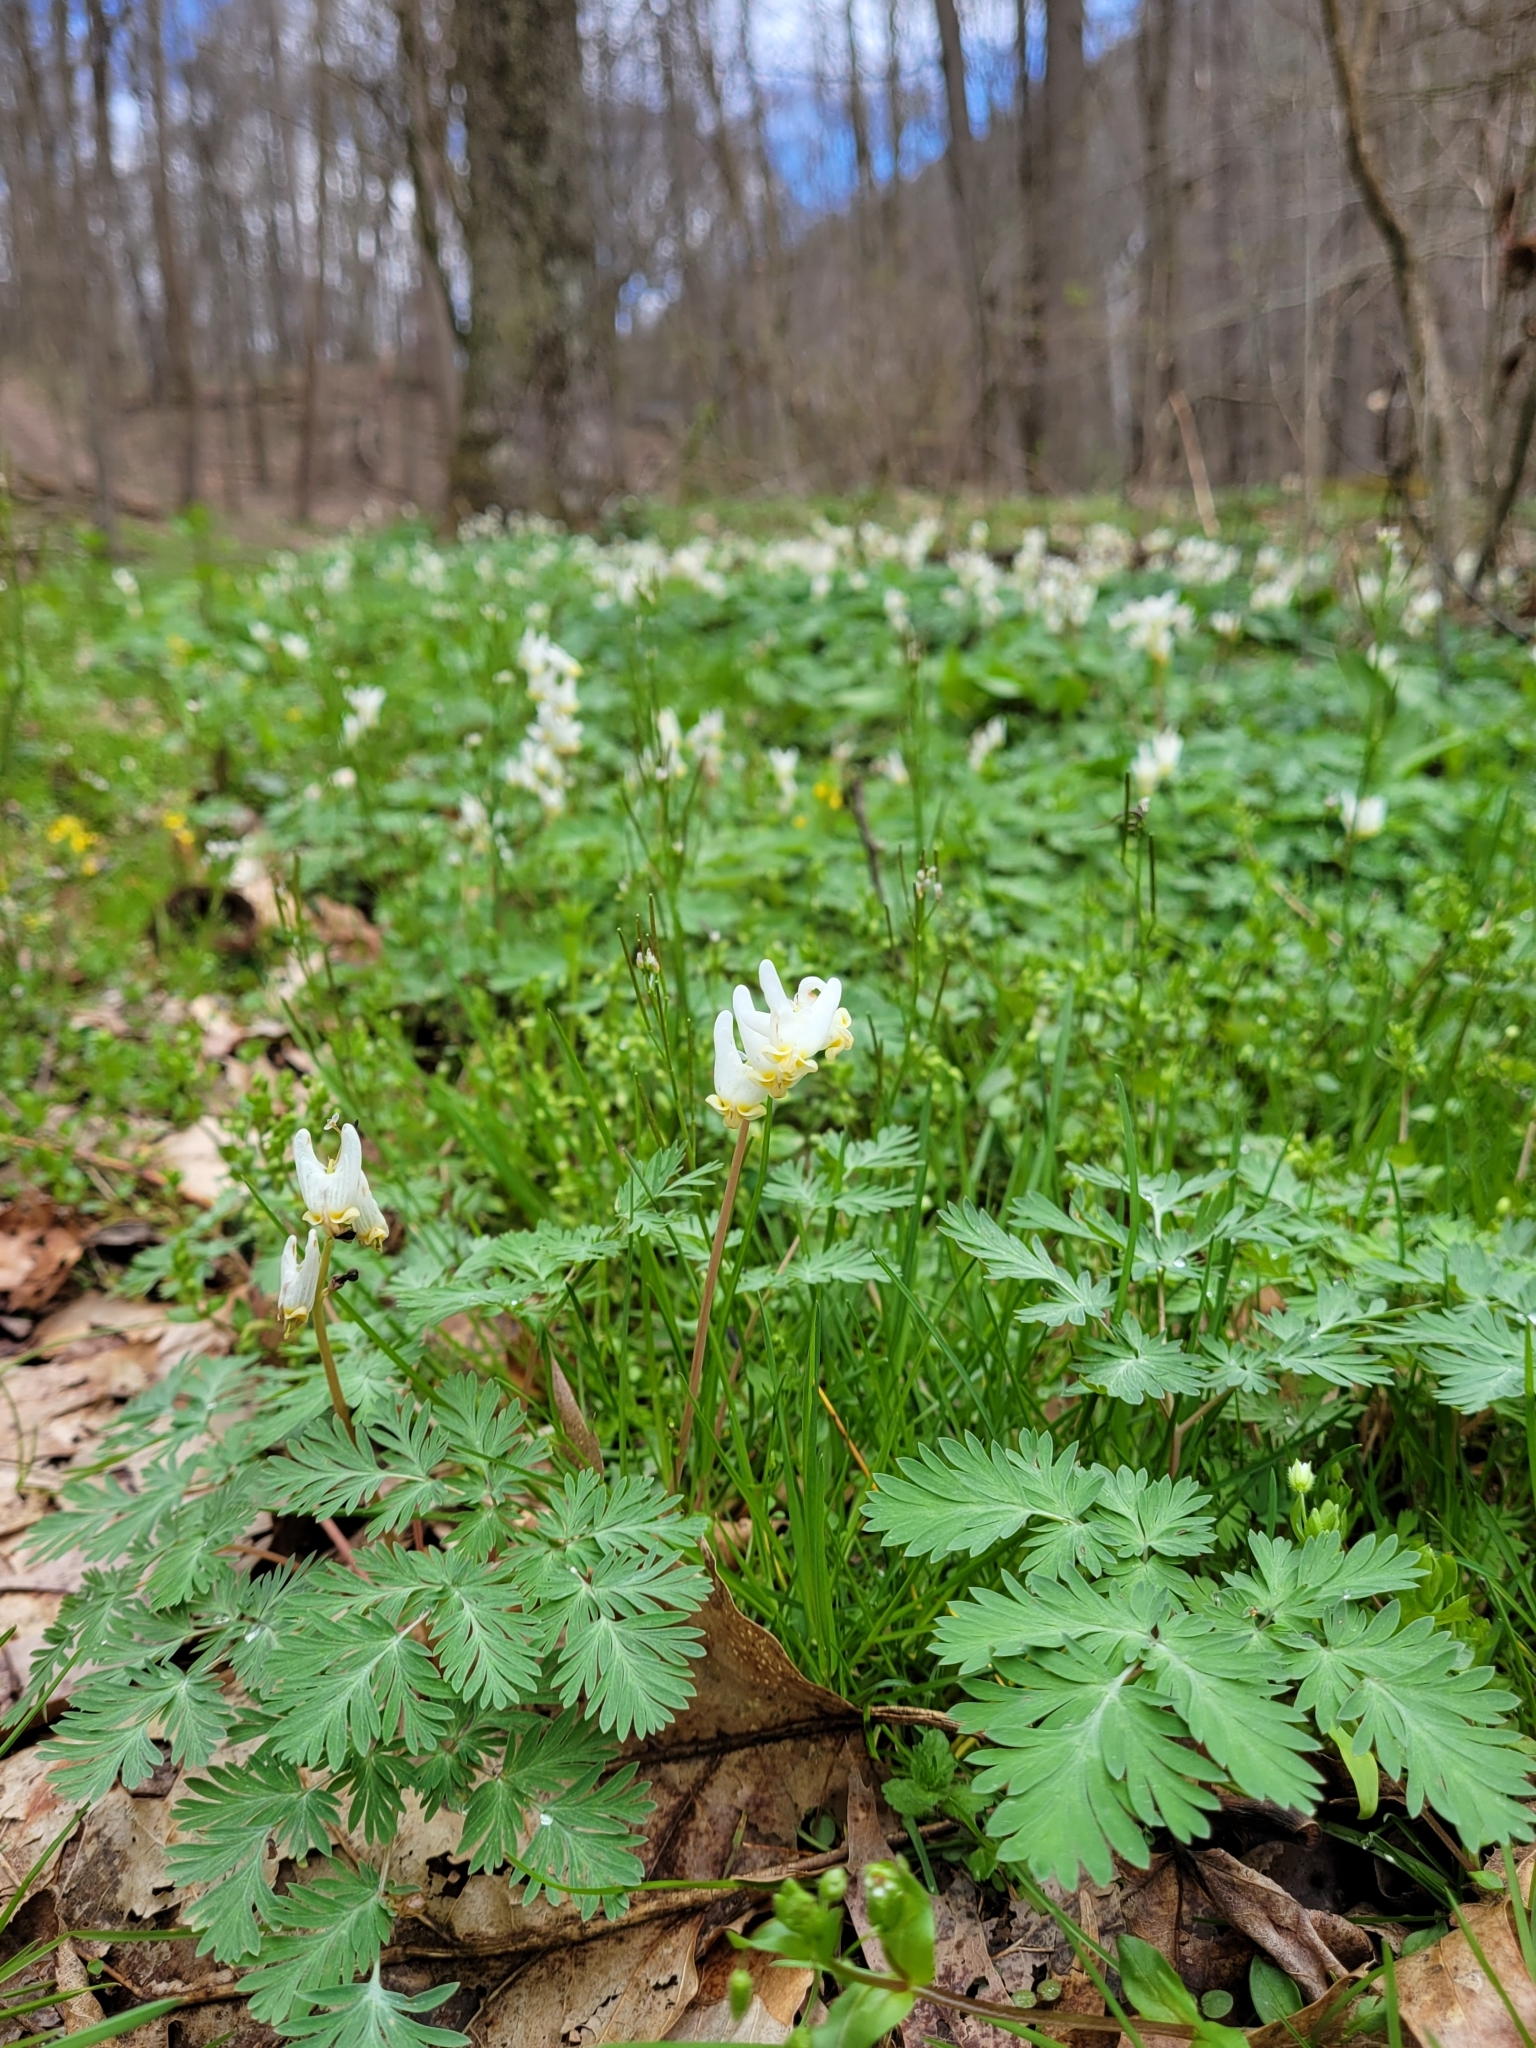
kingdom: Plantae
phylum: Tracheophyta
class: Magnoliopsida
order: Ranunculales
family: Papaveraceae
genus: Dicentra
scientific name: Dicentra cucullaria
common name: Dutchman's breeches
